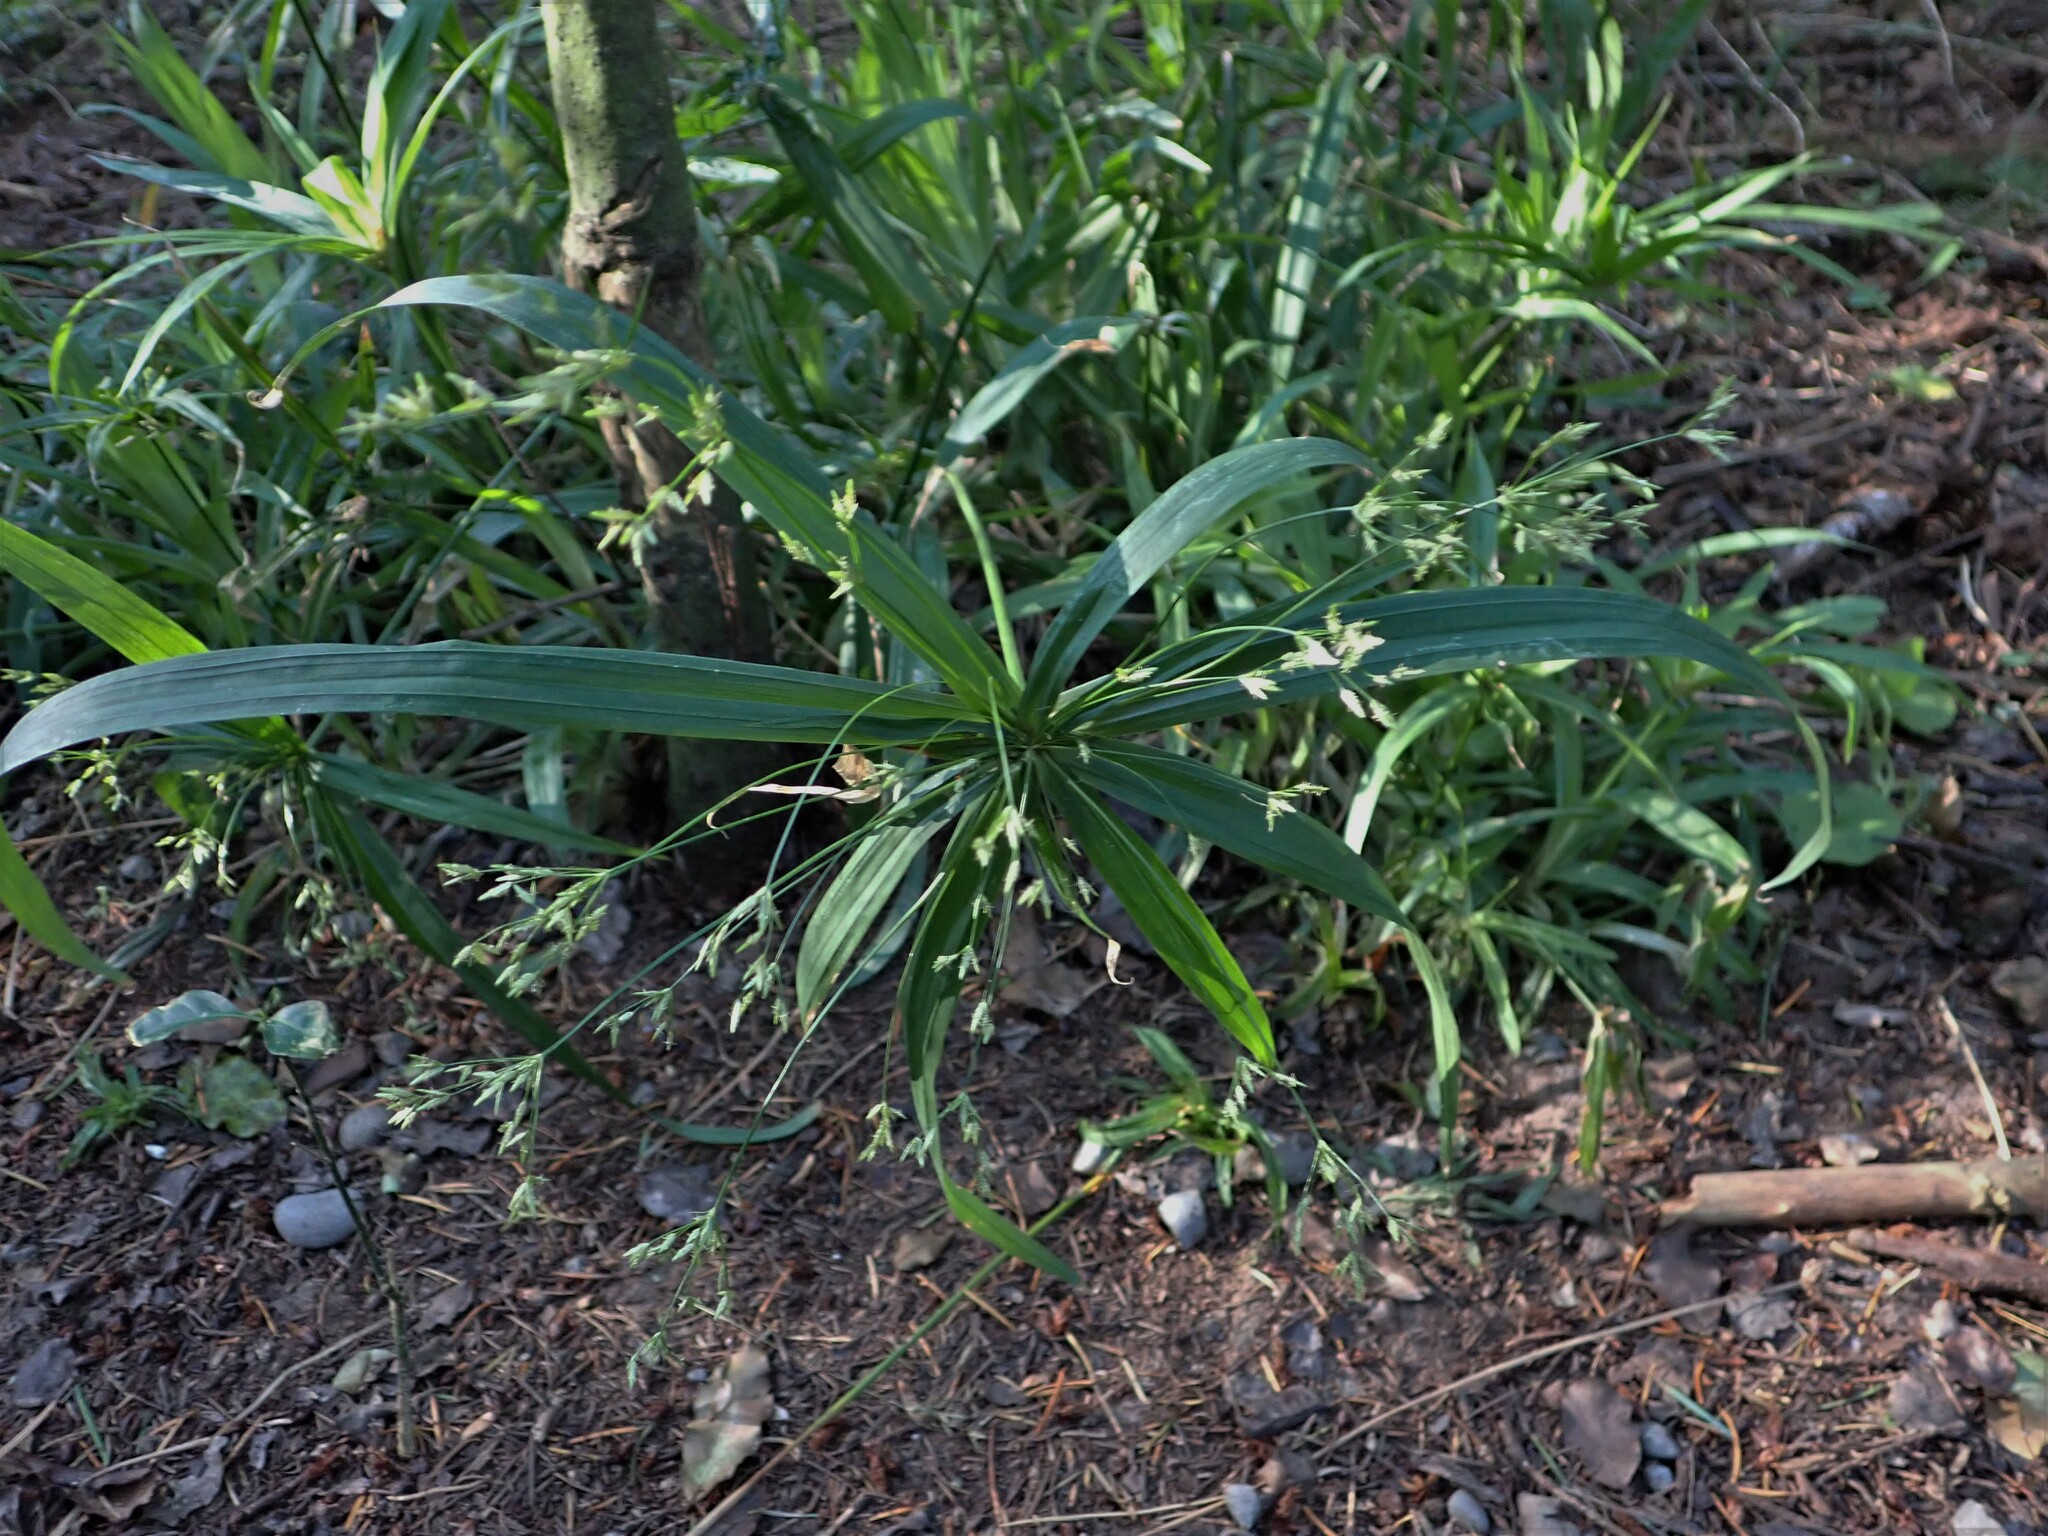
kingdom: Plantae
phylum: Tracheophyta
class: Liliopsida
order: Poales
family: Cyperaceae
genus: Cyperus
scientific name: Cyperus albostriatus
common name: Dwarf umbrella-grass
